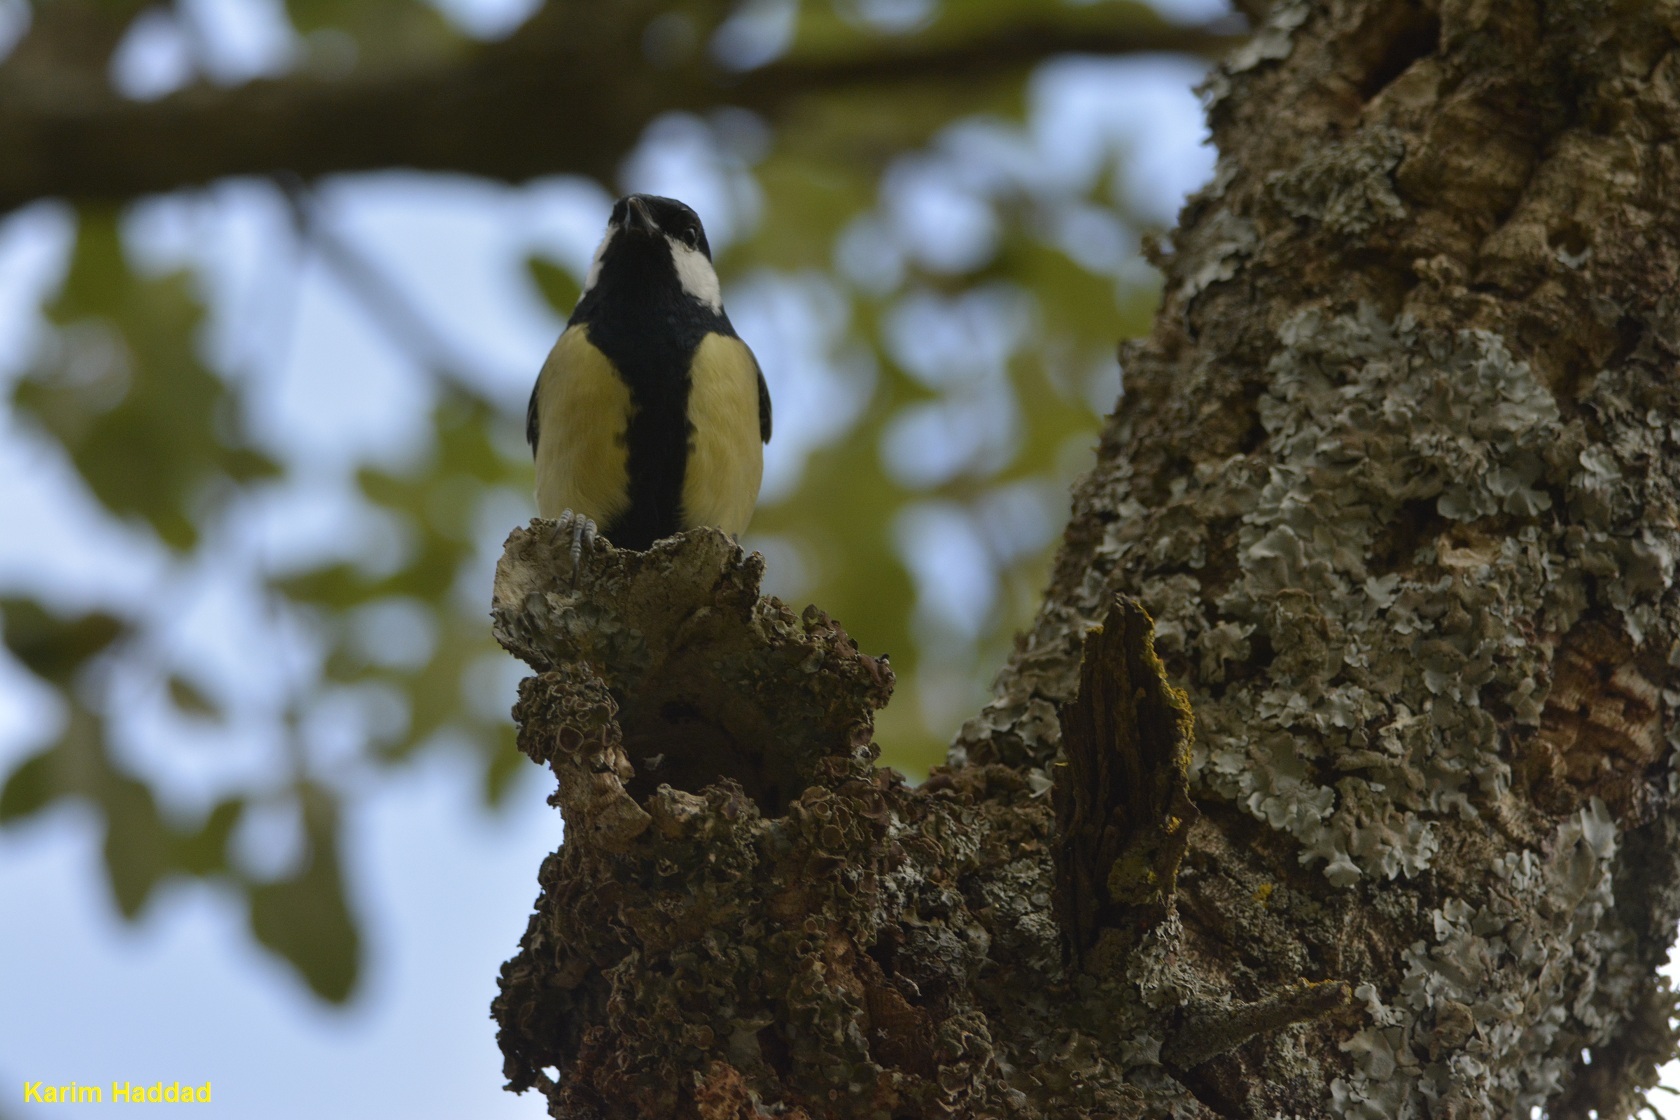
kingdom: Animalia
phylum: Chordata
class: Aves
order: Passeriformes
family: Paridae
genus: Parus
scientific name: Parus major
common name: Great tit
